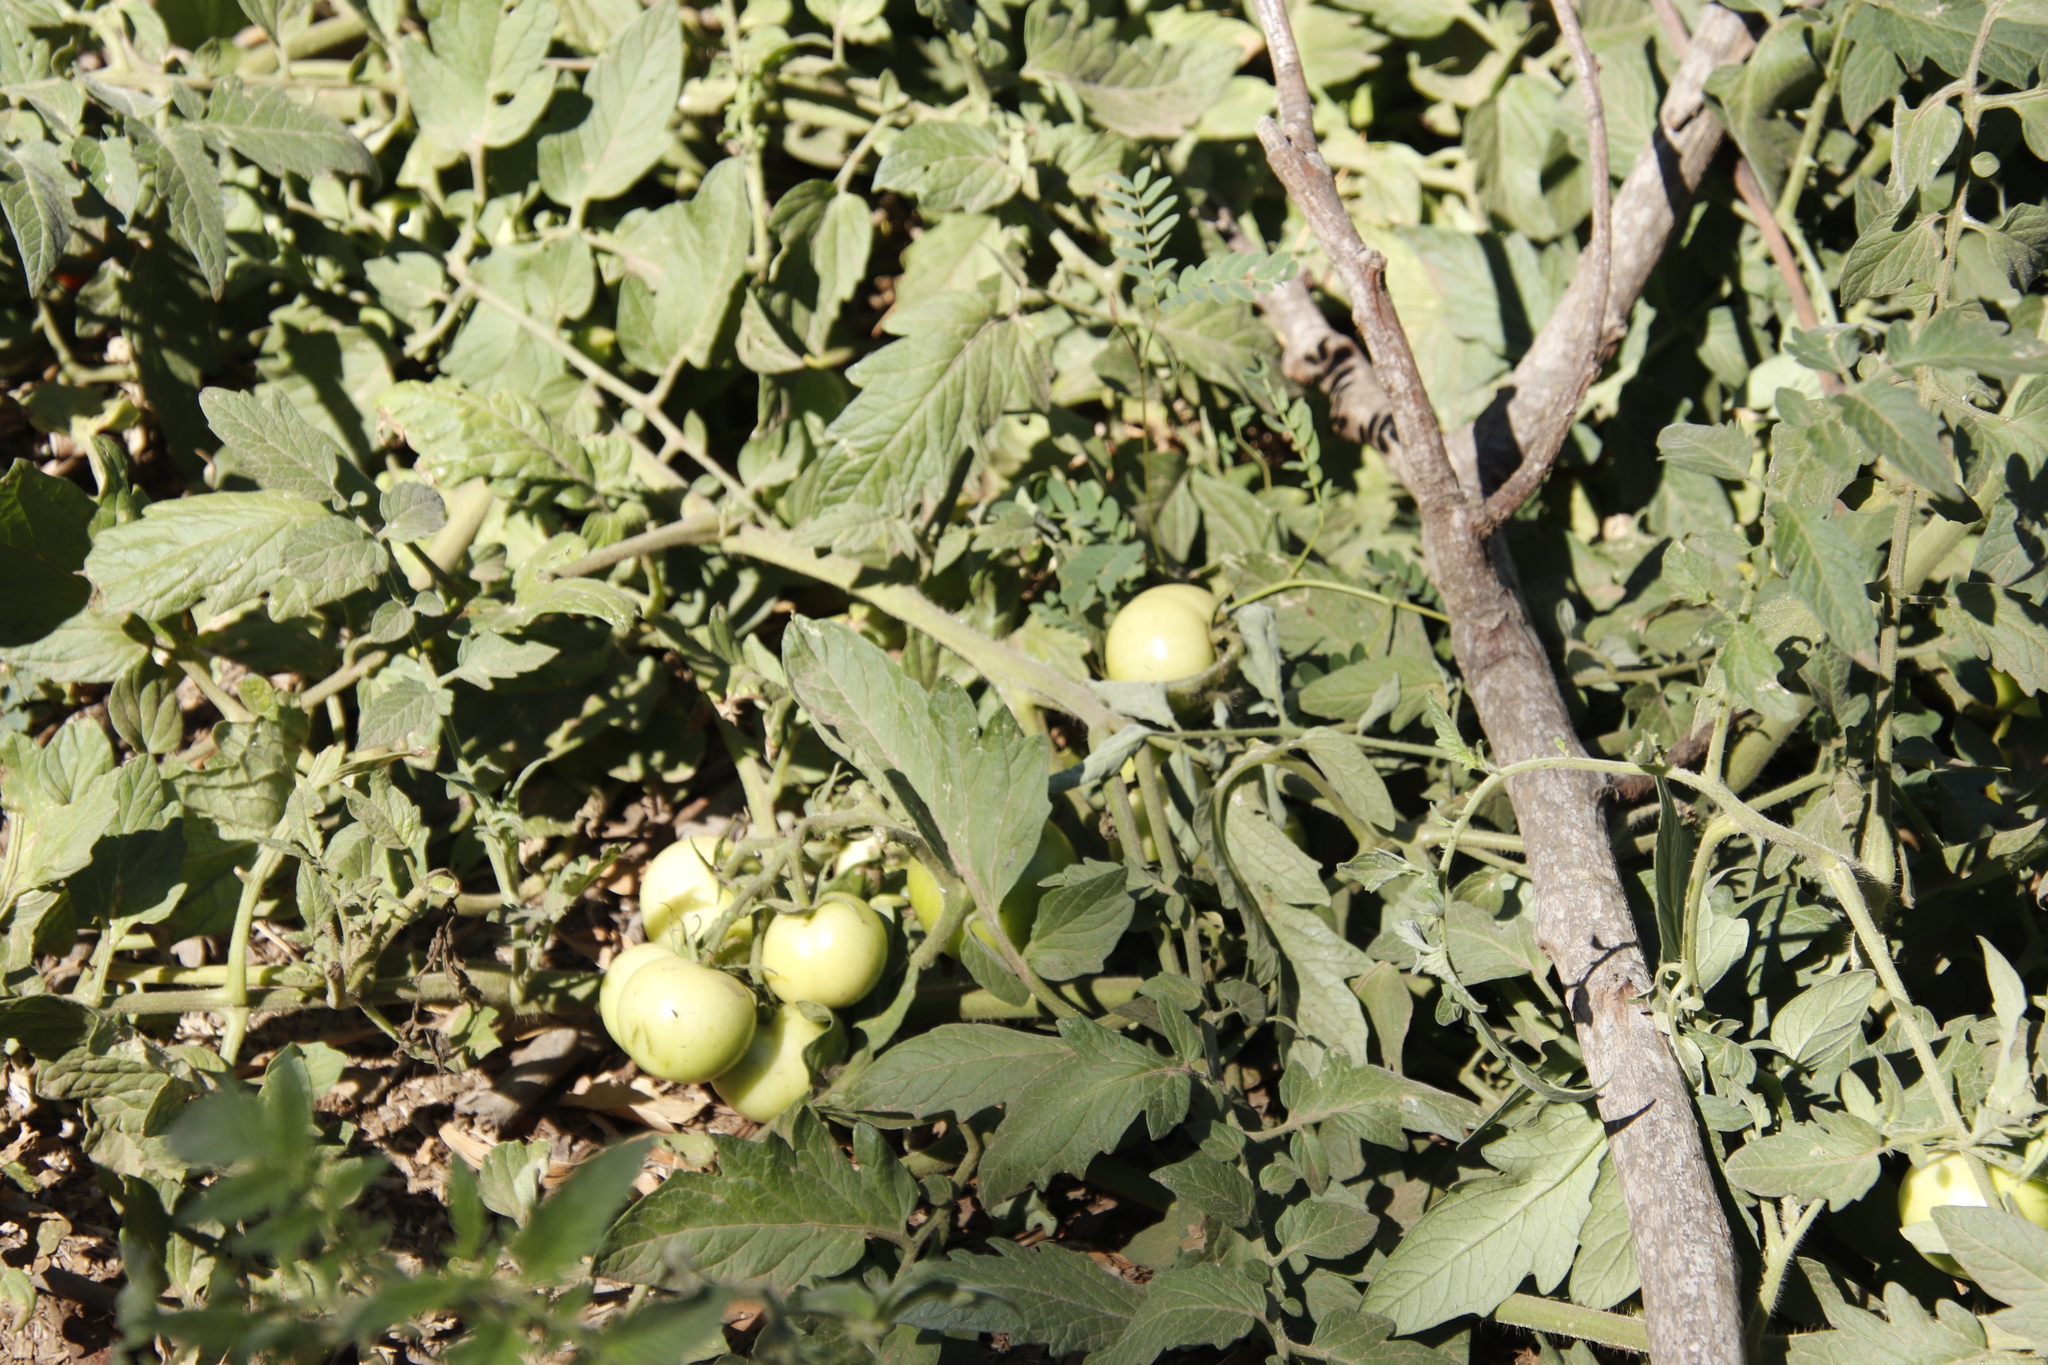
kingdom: Plantae
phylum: Tracheophyta
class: Magnoliopsida
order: Solanales
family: Solanaceae
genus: Solanum
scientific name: Solanum lycopersicum
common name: Garden tomato
